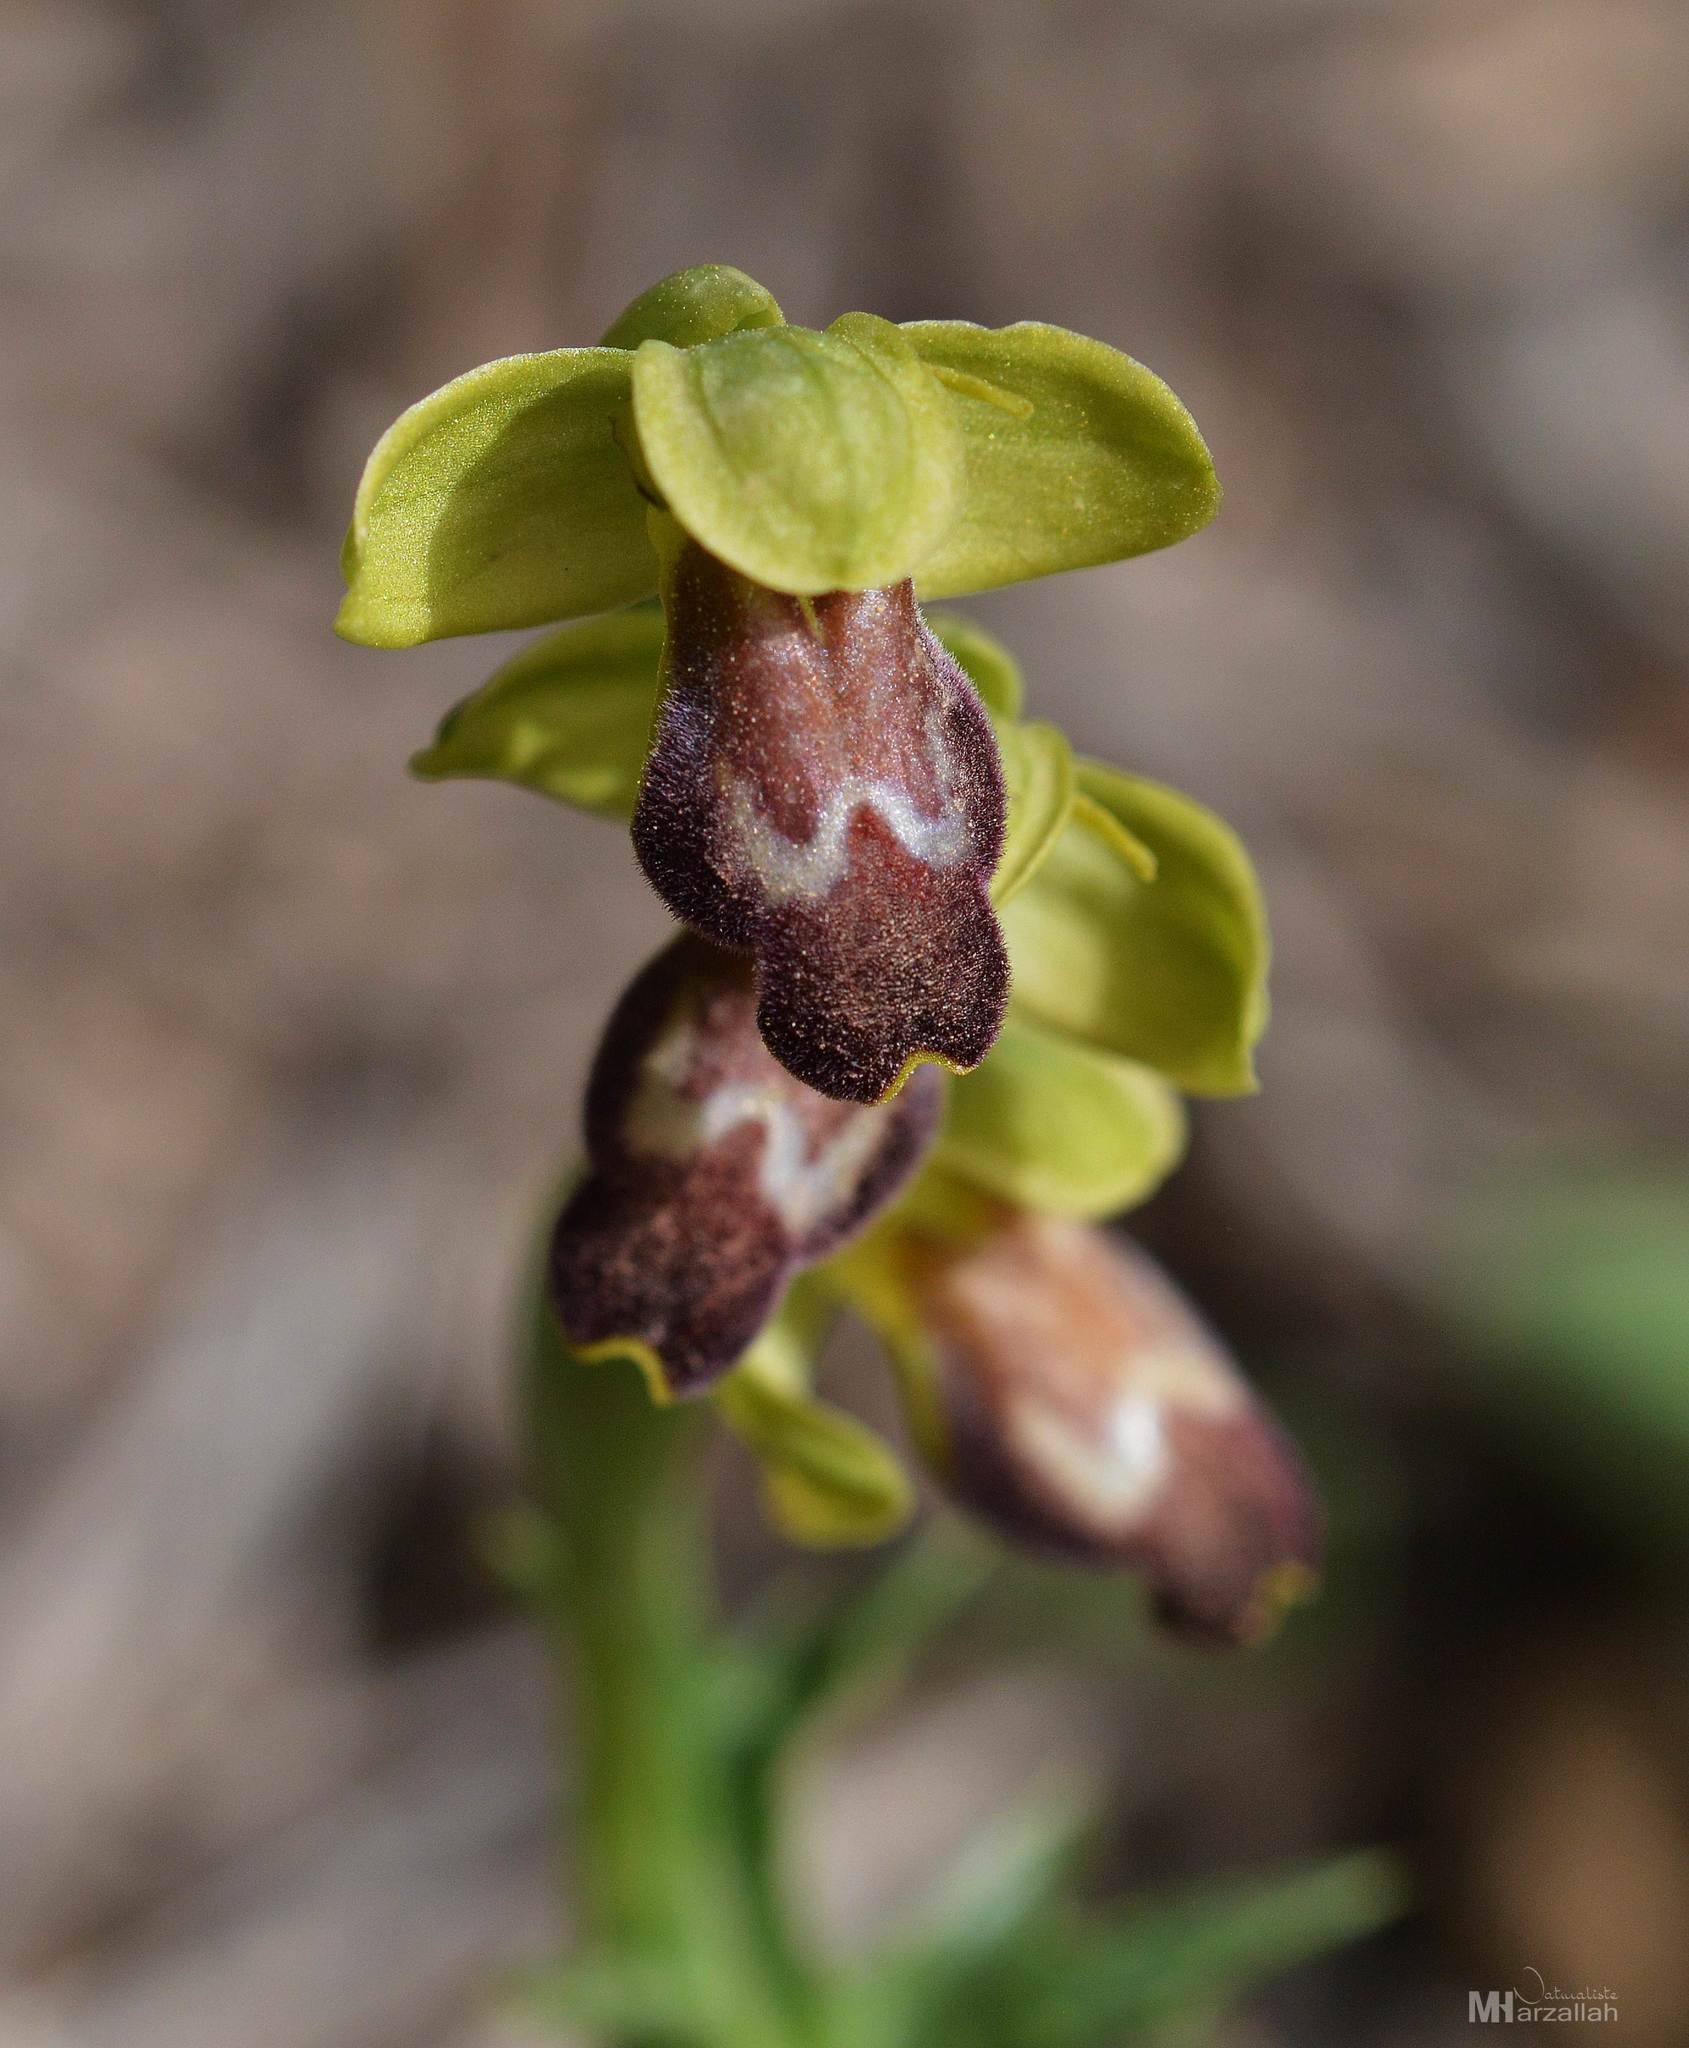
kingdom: Plantae
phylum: Tracheophyta
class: Liliopsida
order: Asparagales
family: Orchidaceae
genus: Ophrys
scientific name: Ophrys fusca
